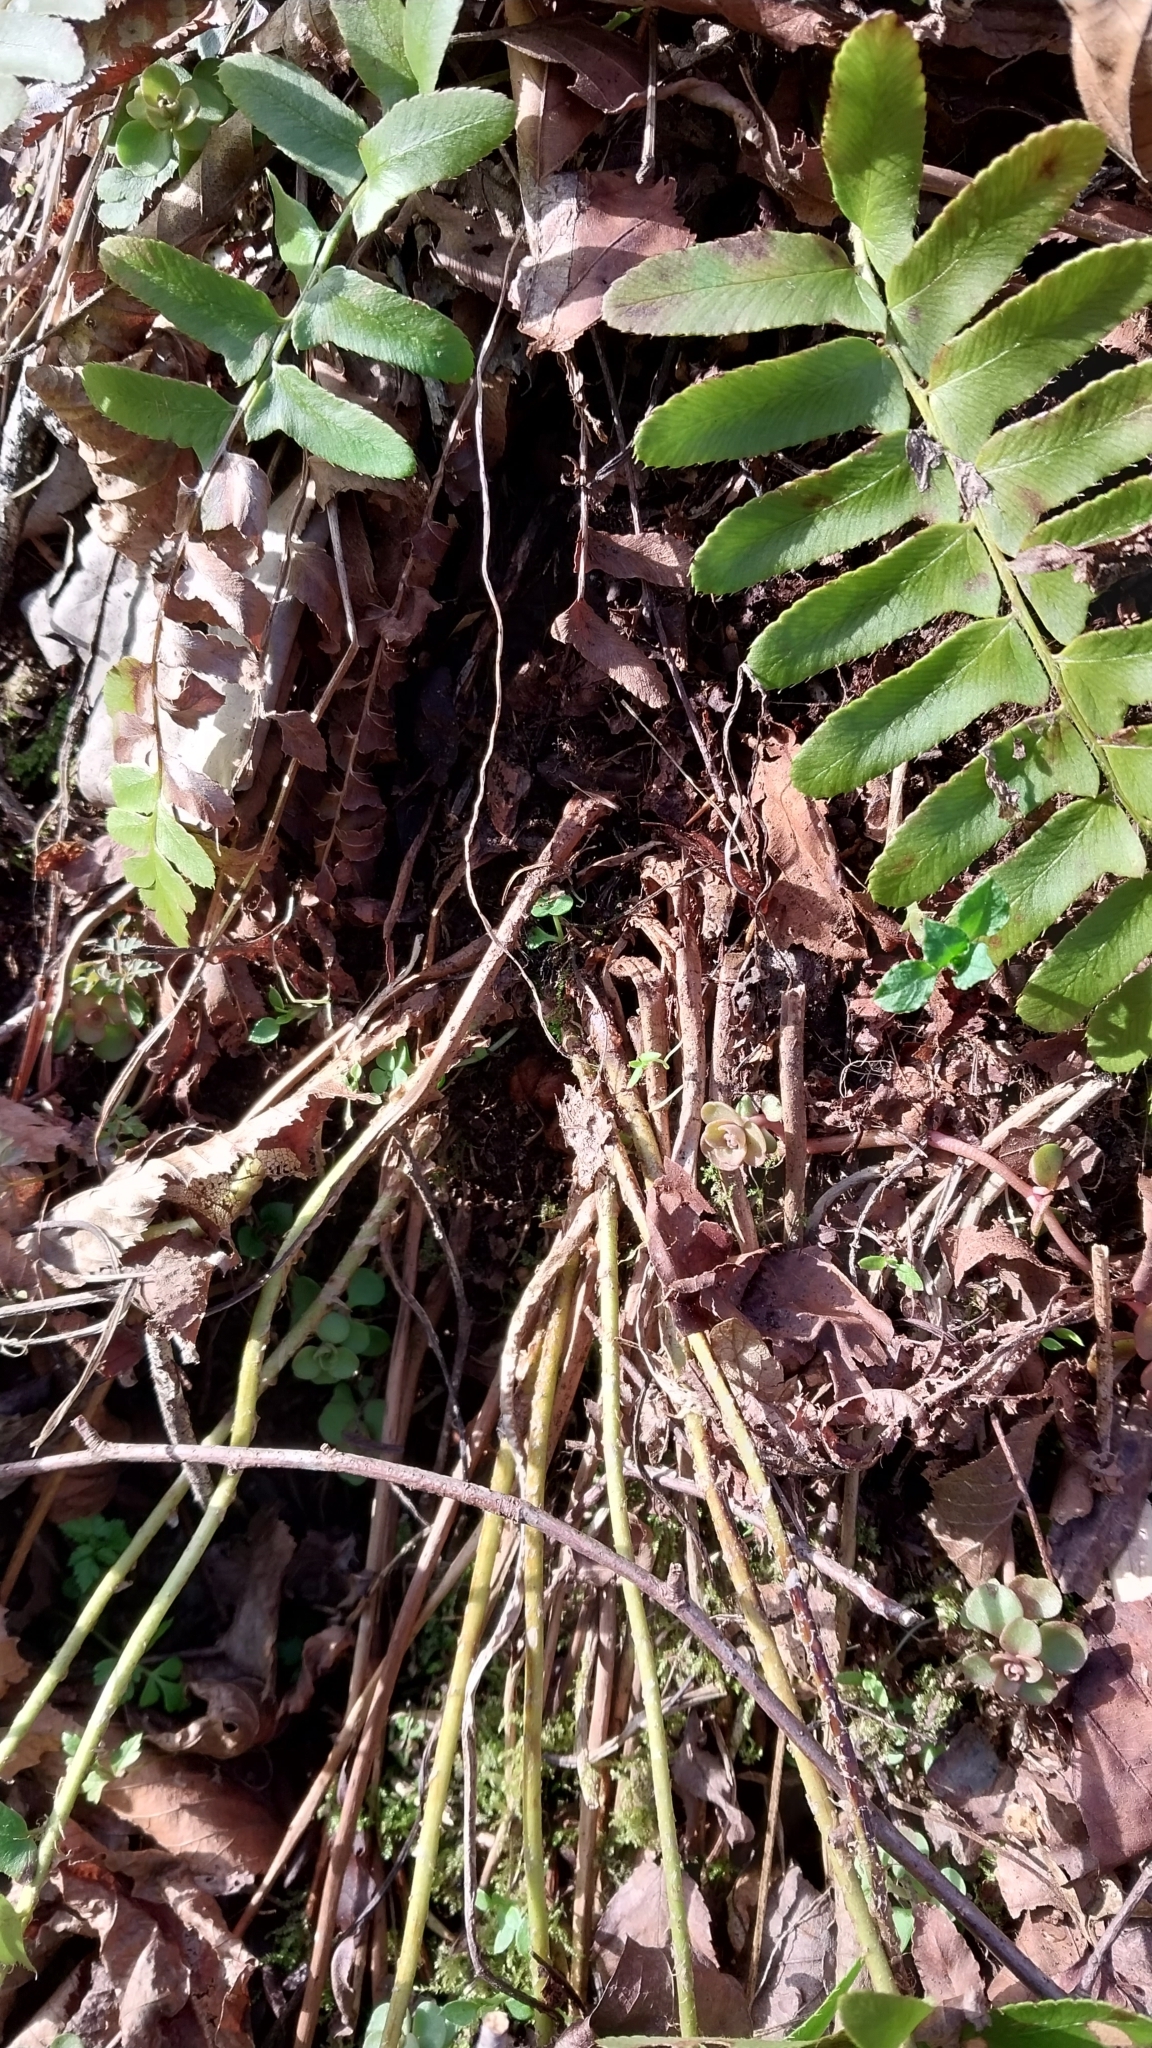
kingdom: Plantae
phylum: Tracheophyta
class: Polypodiopsida
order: Polypodiales
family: Dryopteridaceae
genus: Polystichum
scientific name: Polystichum acrostichoides
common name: Christmas fern
